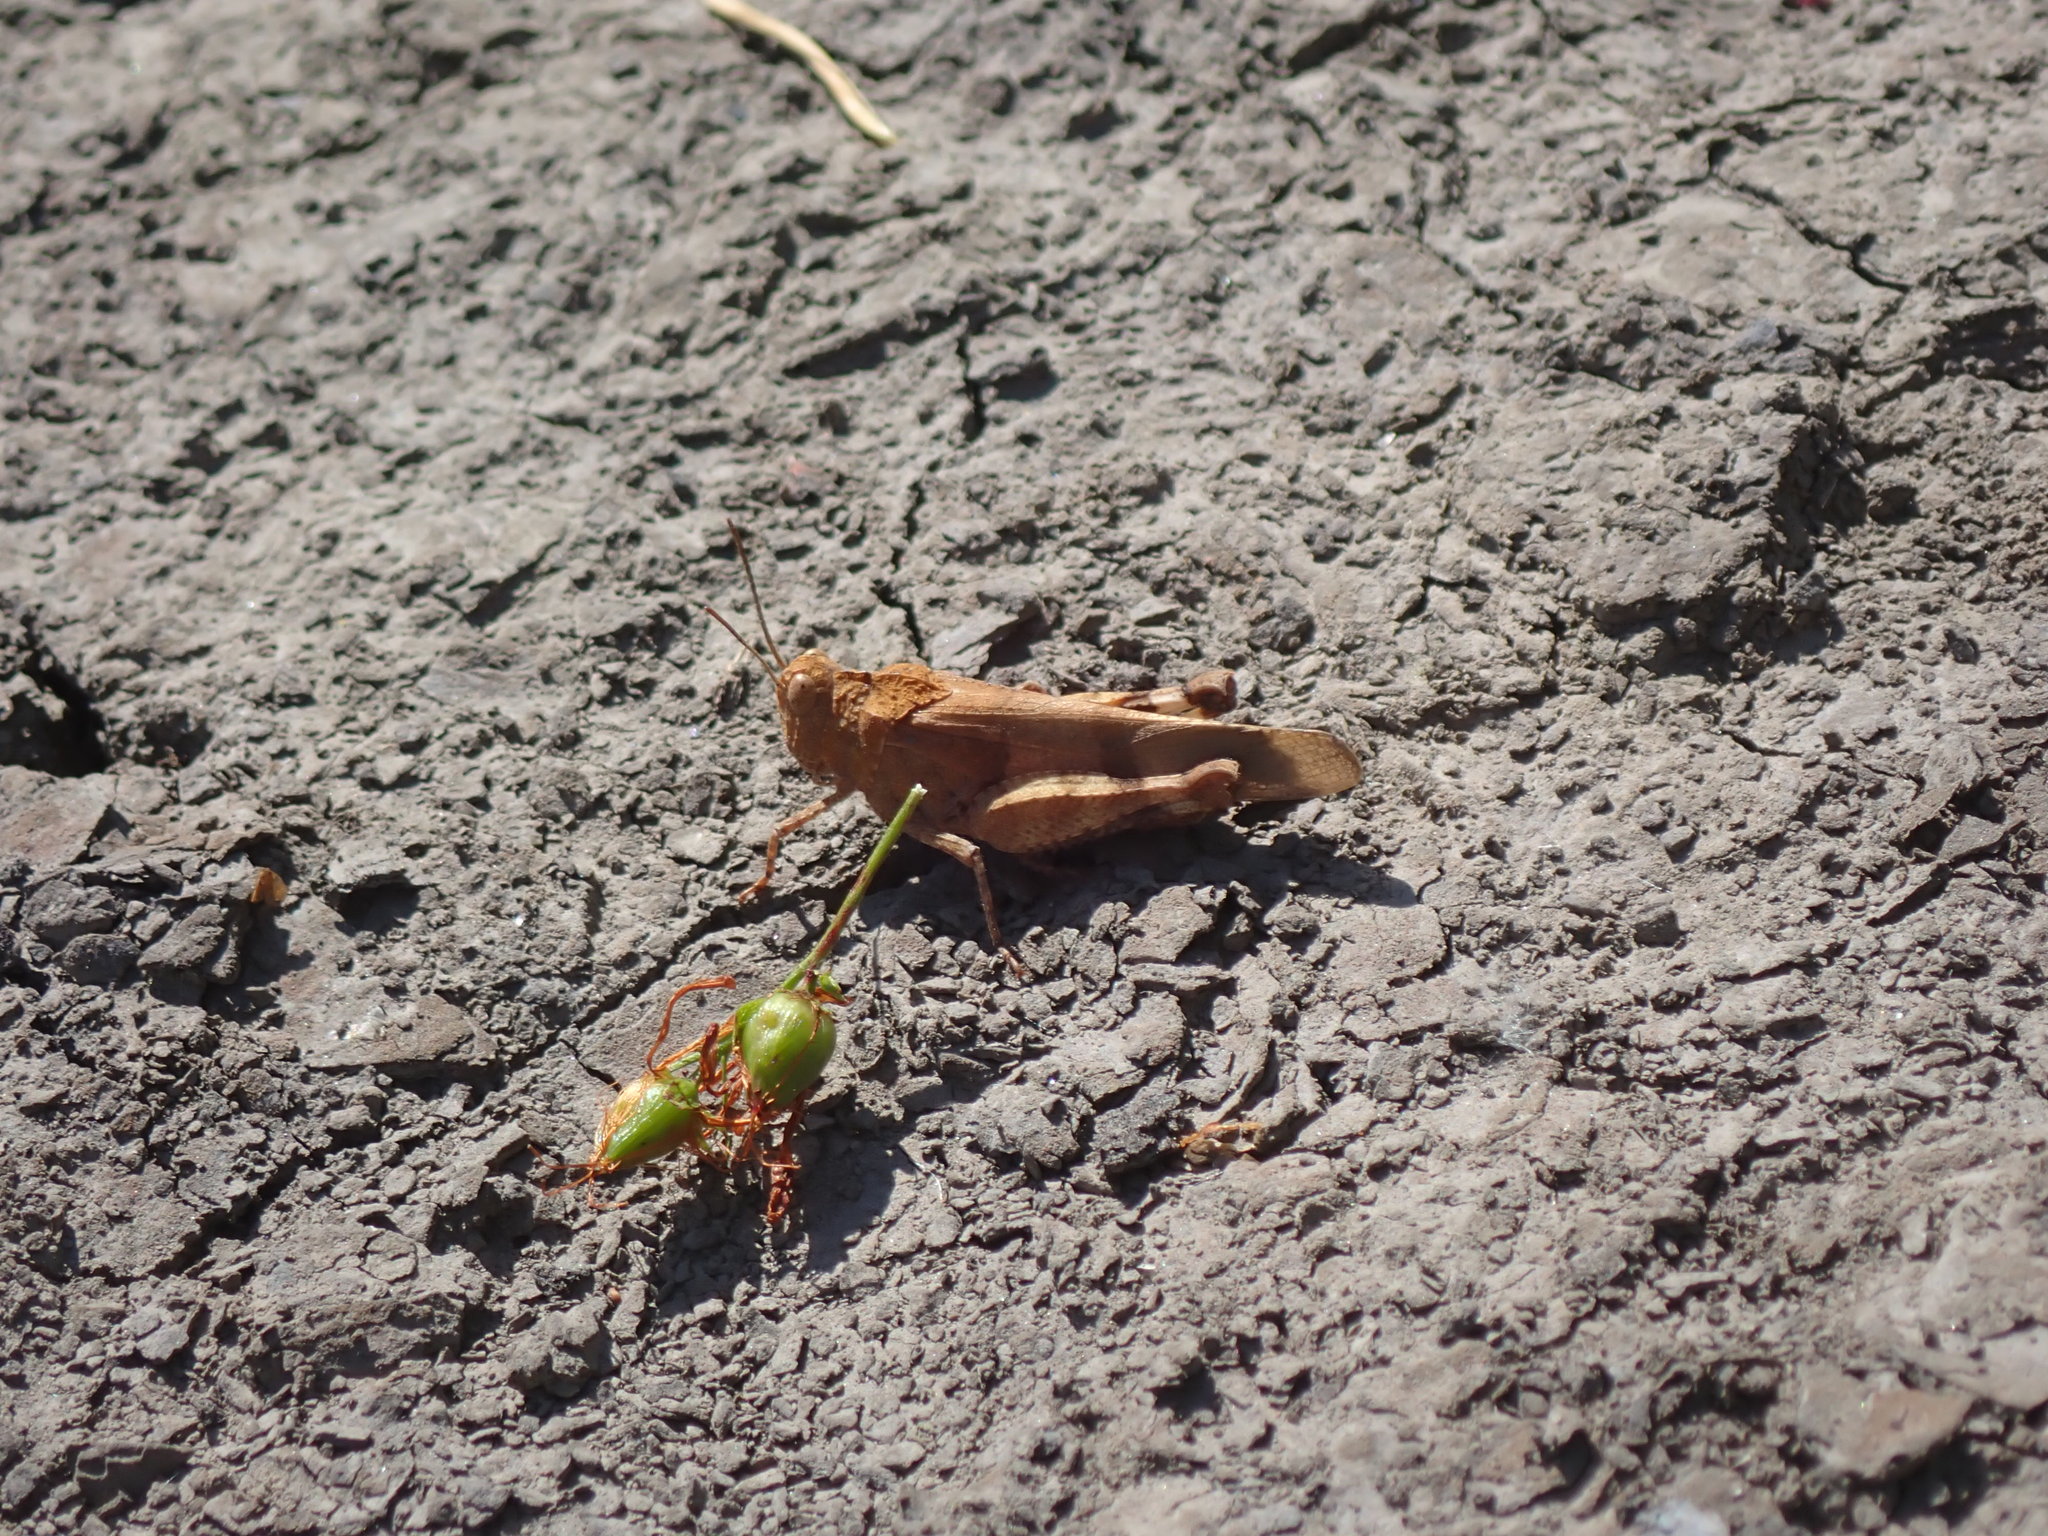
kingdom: Animalia
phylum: Arthropoda
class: Insecta
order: Orthoptera
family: Acrididae
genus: Oedipoda
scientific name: Oedipoda caerulescens
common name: Blue-winged grasshopper
